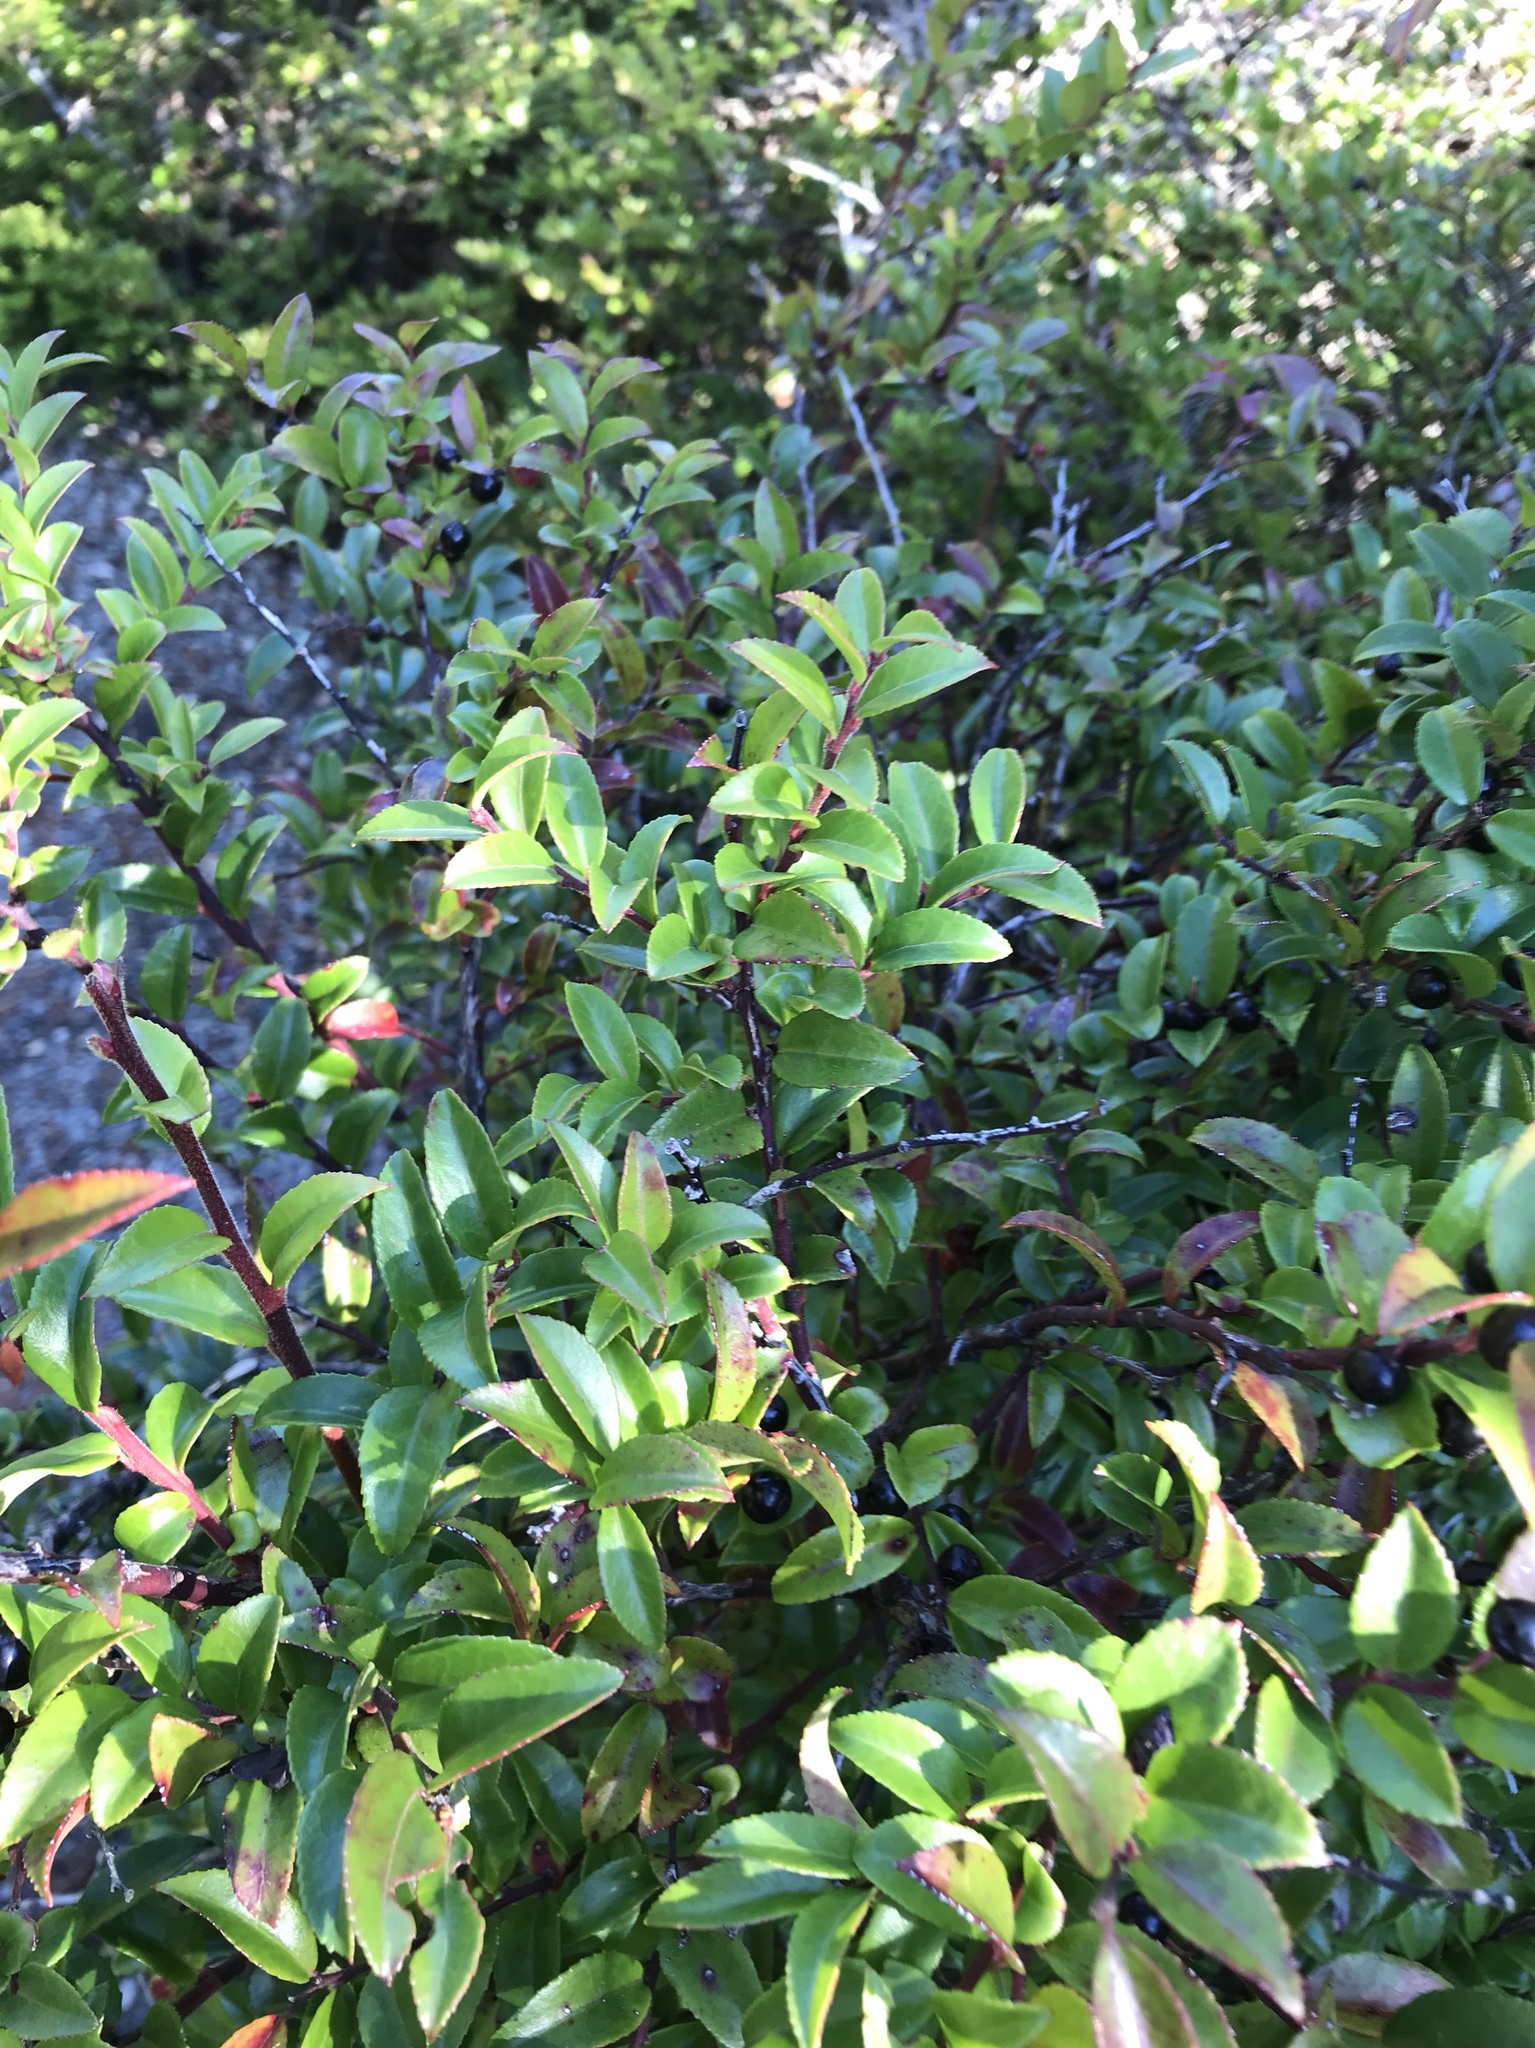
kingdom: Plantae
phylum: Tracheophyta
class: Magnoliopsida
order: Ericales
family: Ericaceae
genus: Vaccinium
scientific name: Vaccinium ovatum
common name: California-huckleberry
